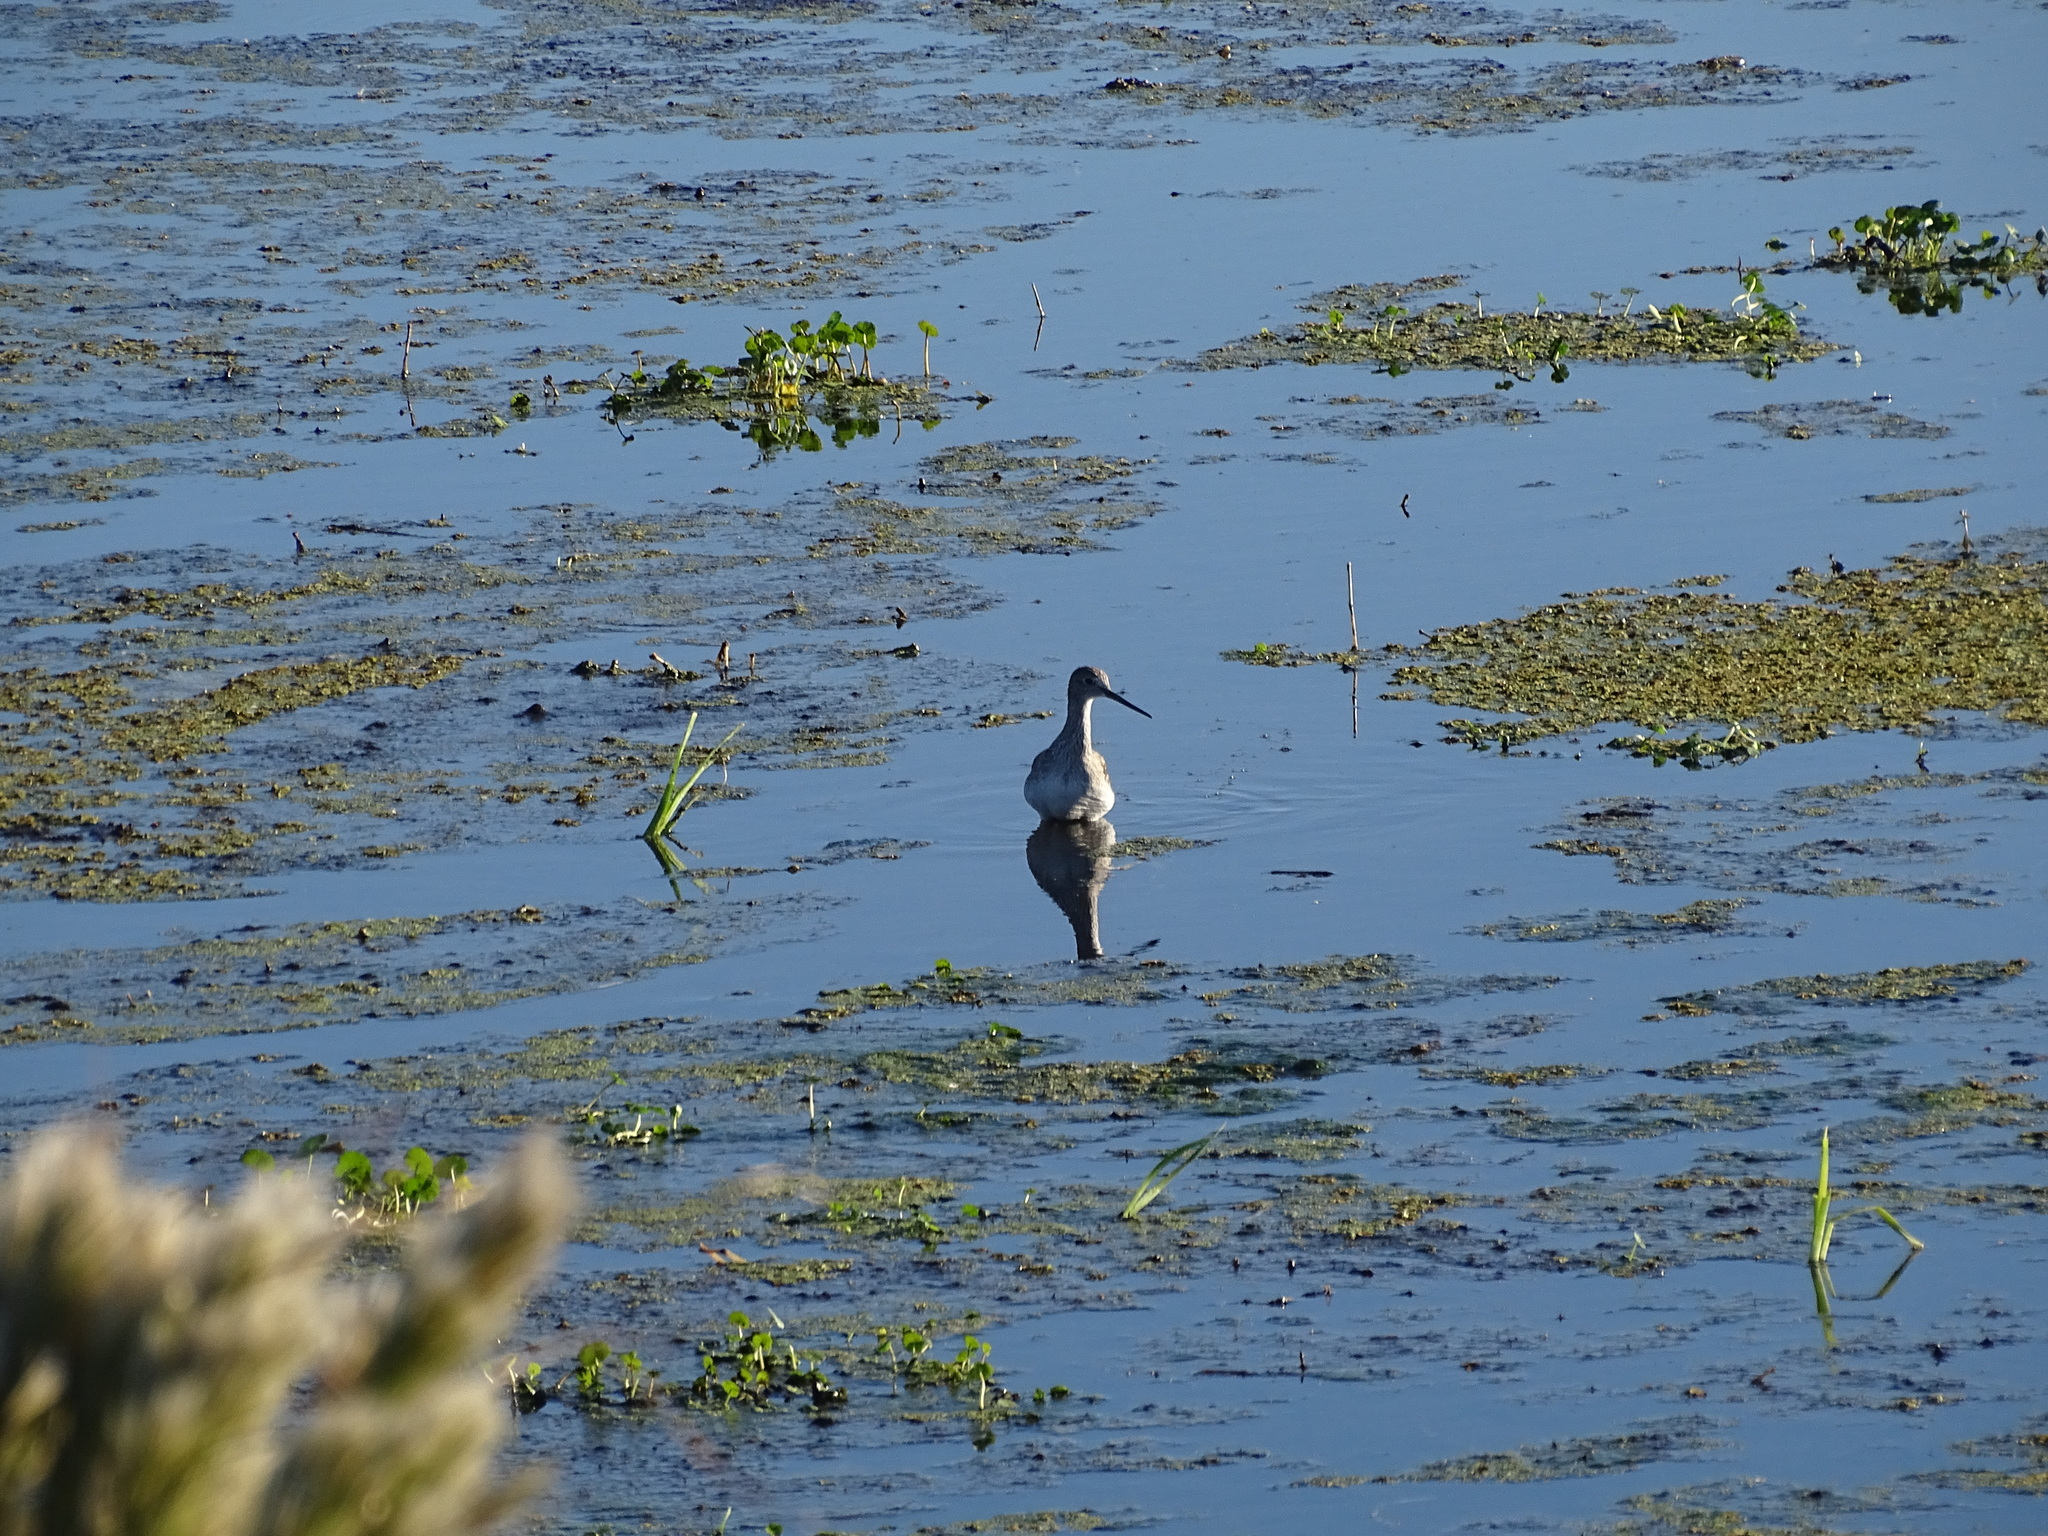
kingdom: Animalia
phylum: Chordata
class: Aves
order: Charadriiformes
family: Scolopacidae
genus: Tringa
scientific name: Tringa melanoleuca
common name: Greater yellowlegs
